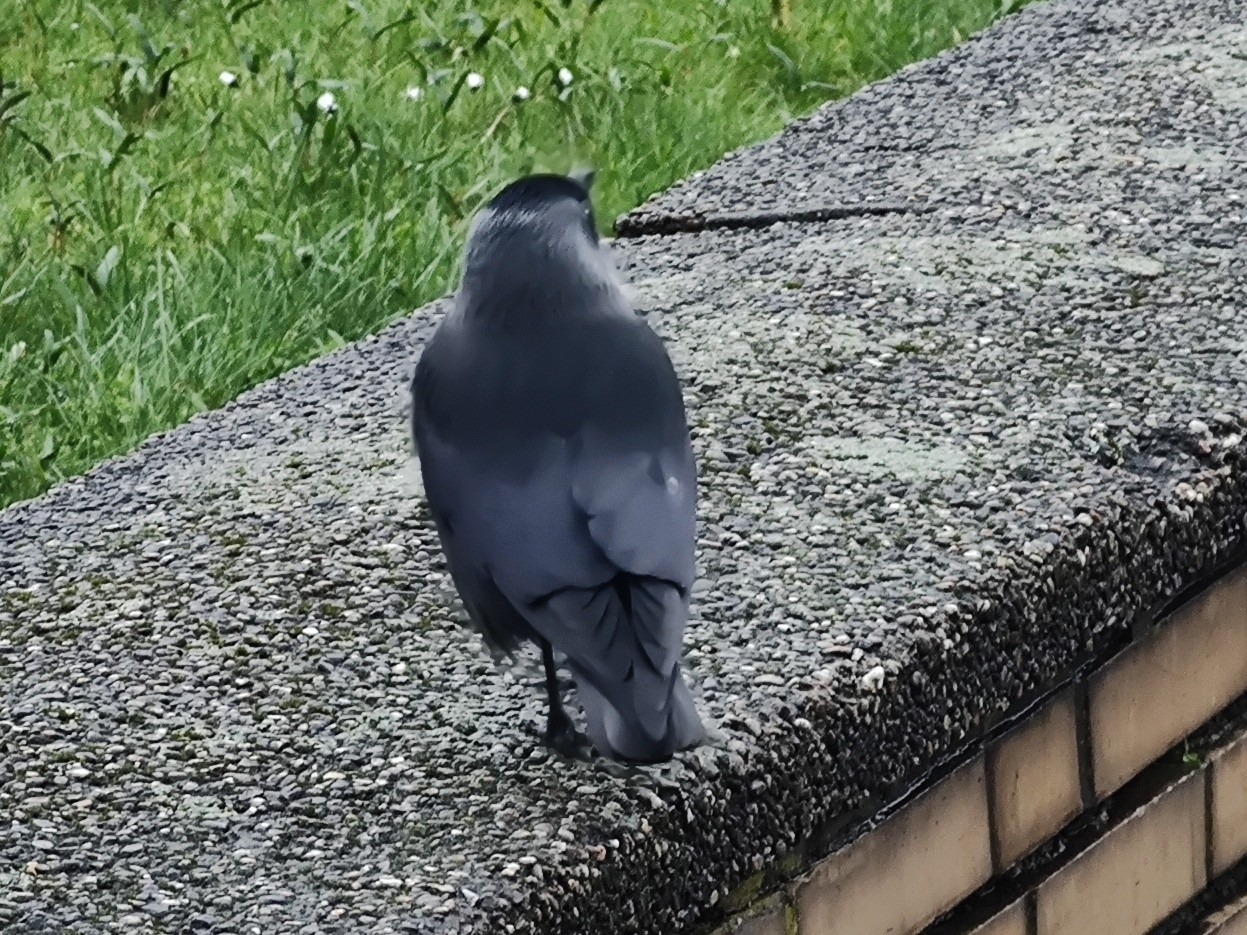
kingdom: Animalia
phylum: Chordata
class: Aves
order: Passeriformes
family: Corvidae
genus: Coloeus
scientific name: Coloeus monedula
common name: Western jackdaw
